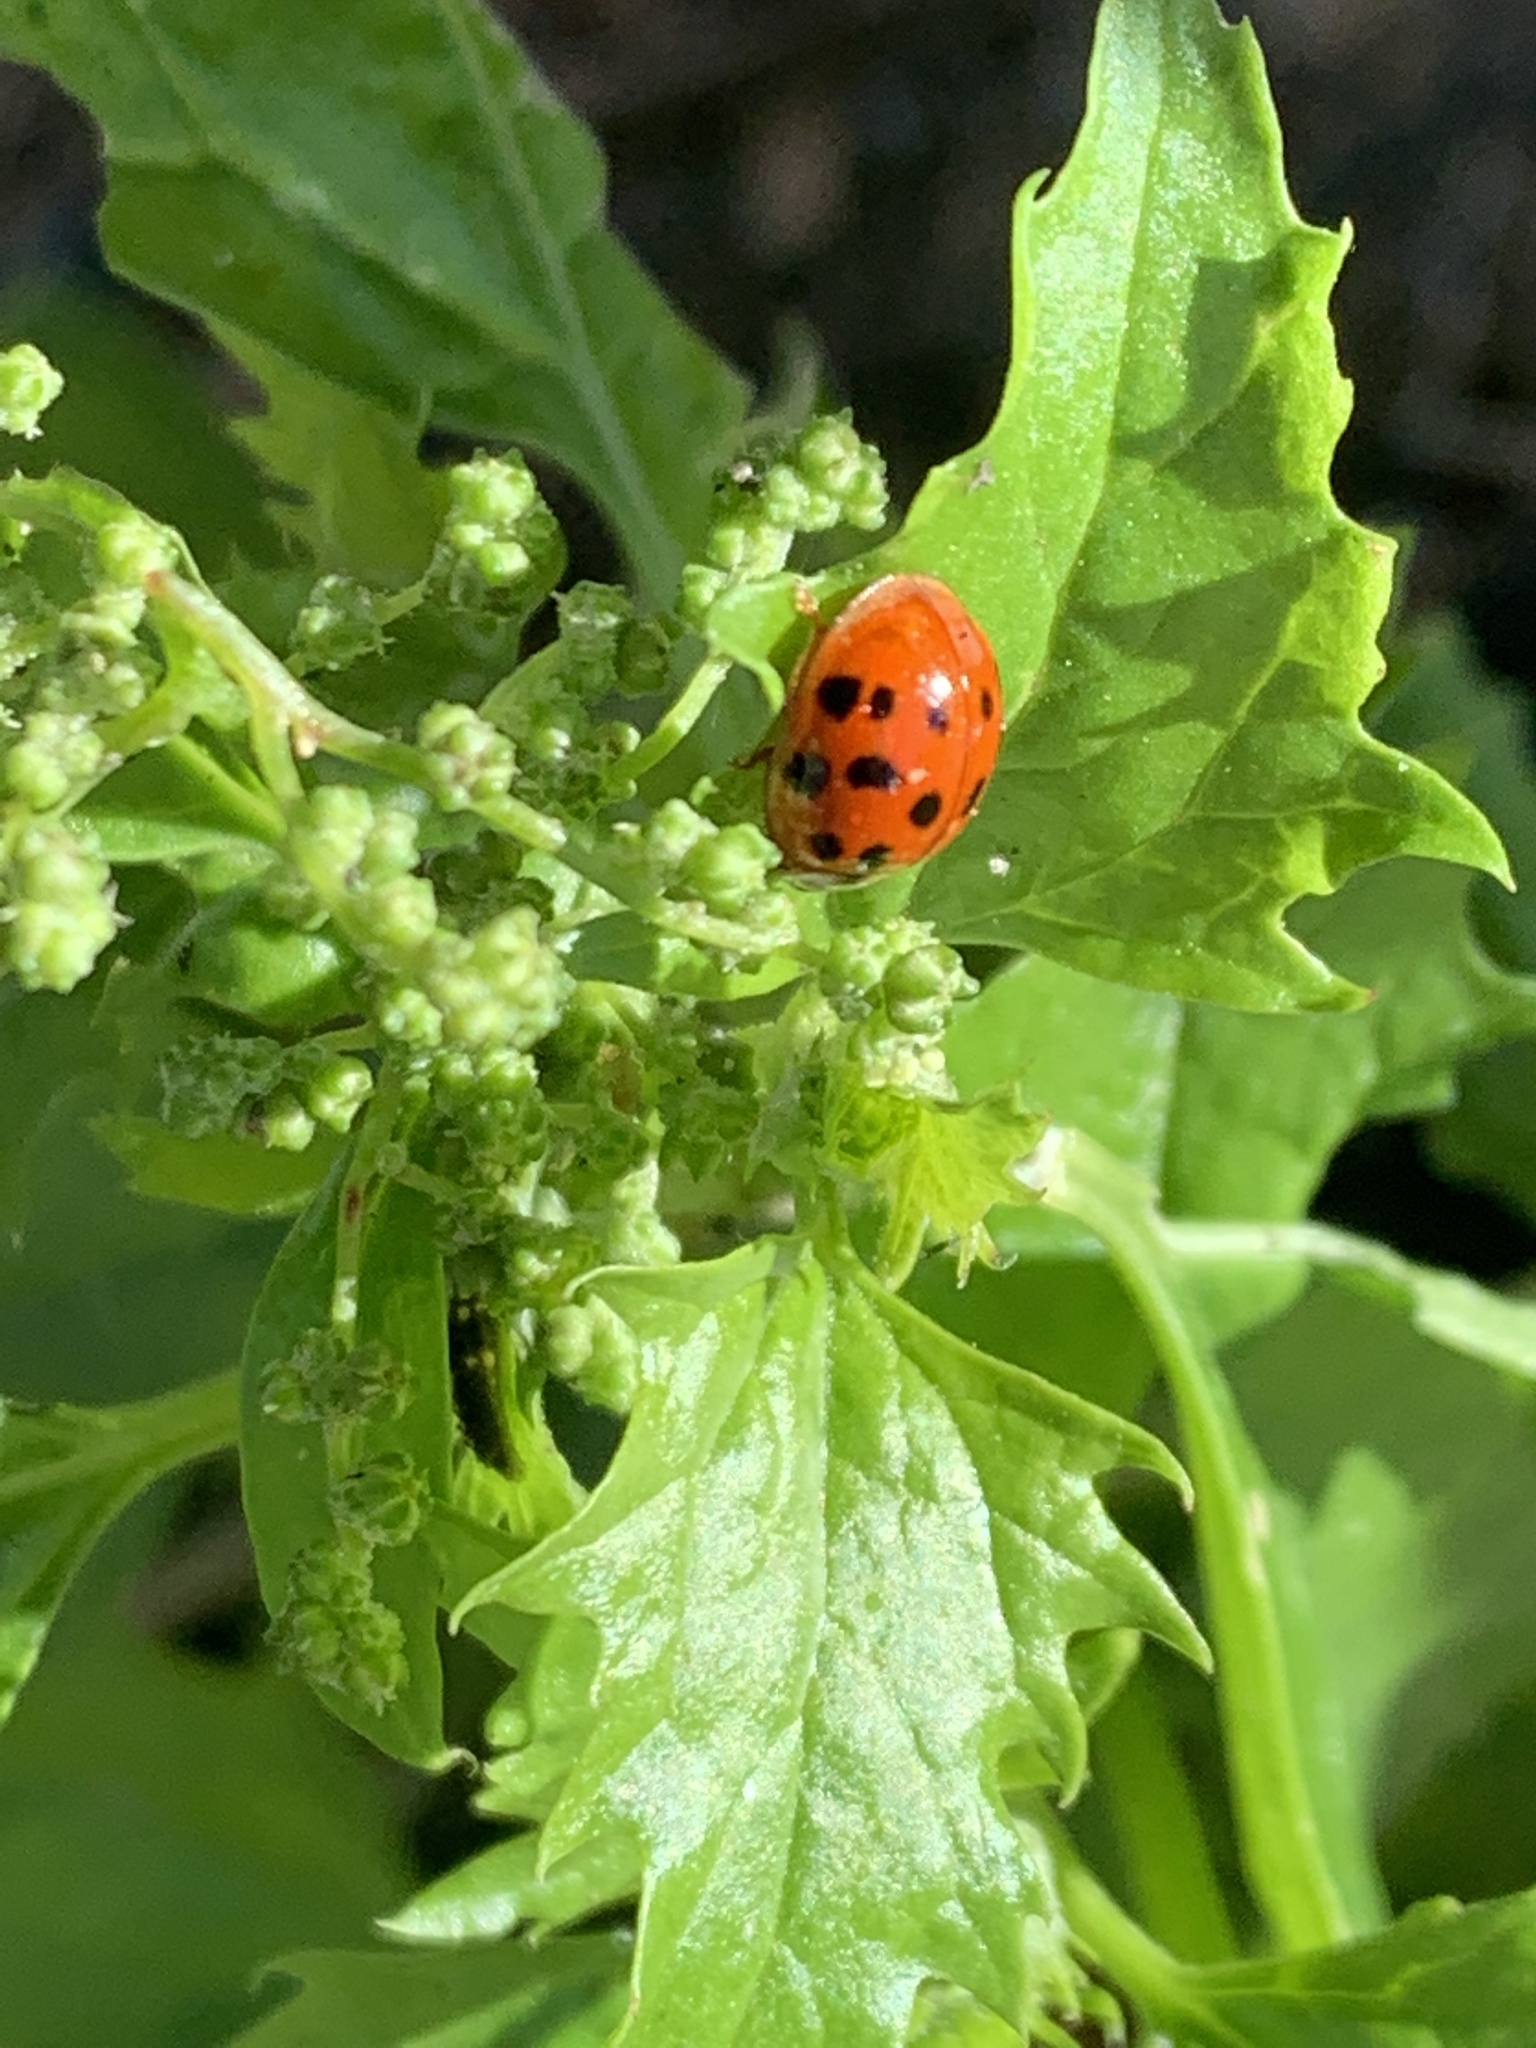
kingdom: Animalia
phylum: Arthropoda
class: Insecta
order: Coleoptera
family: Coccinellidae
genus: Harmonia
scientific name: Harmonia axyridis
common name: Harlequin ladybird
